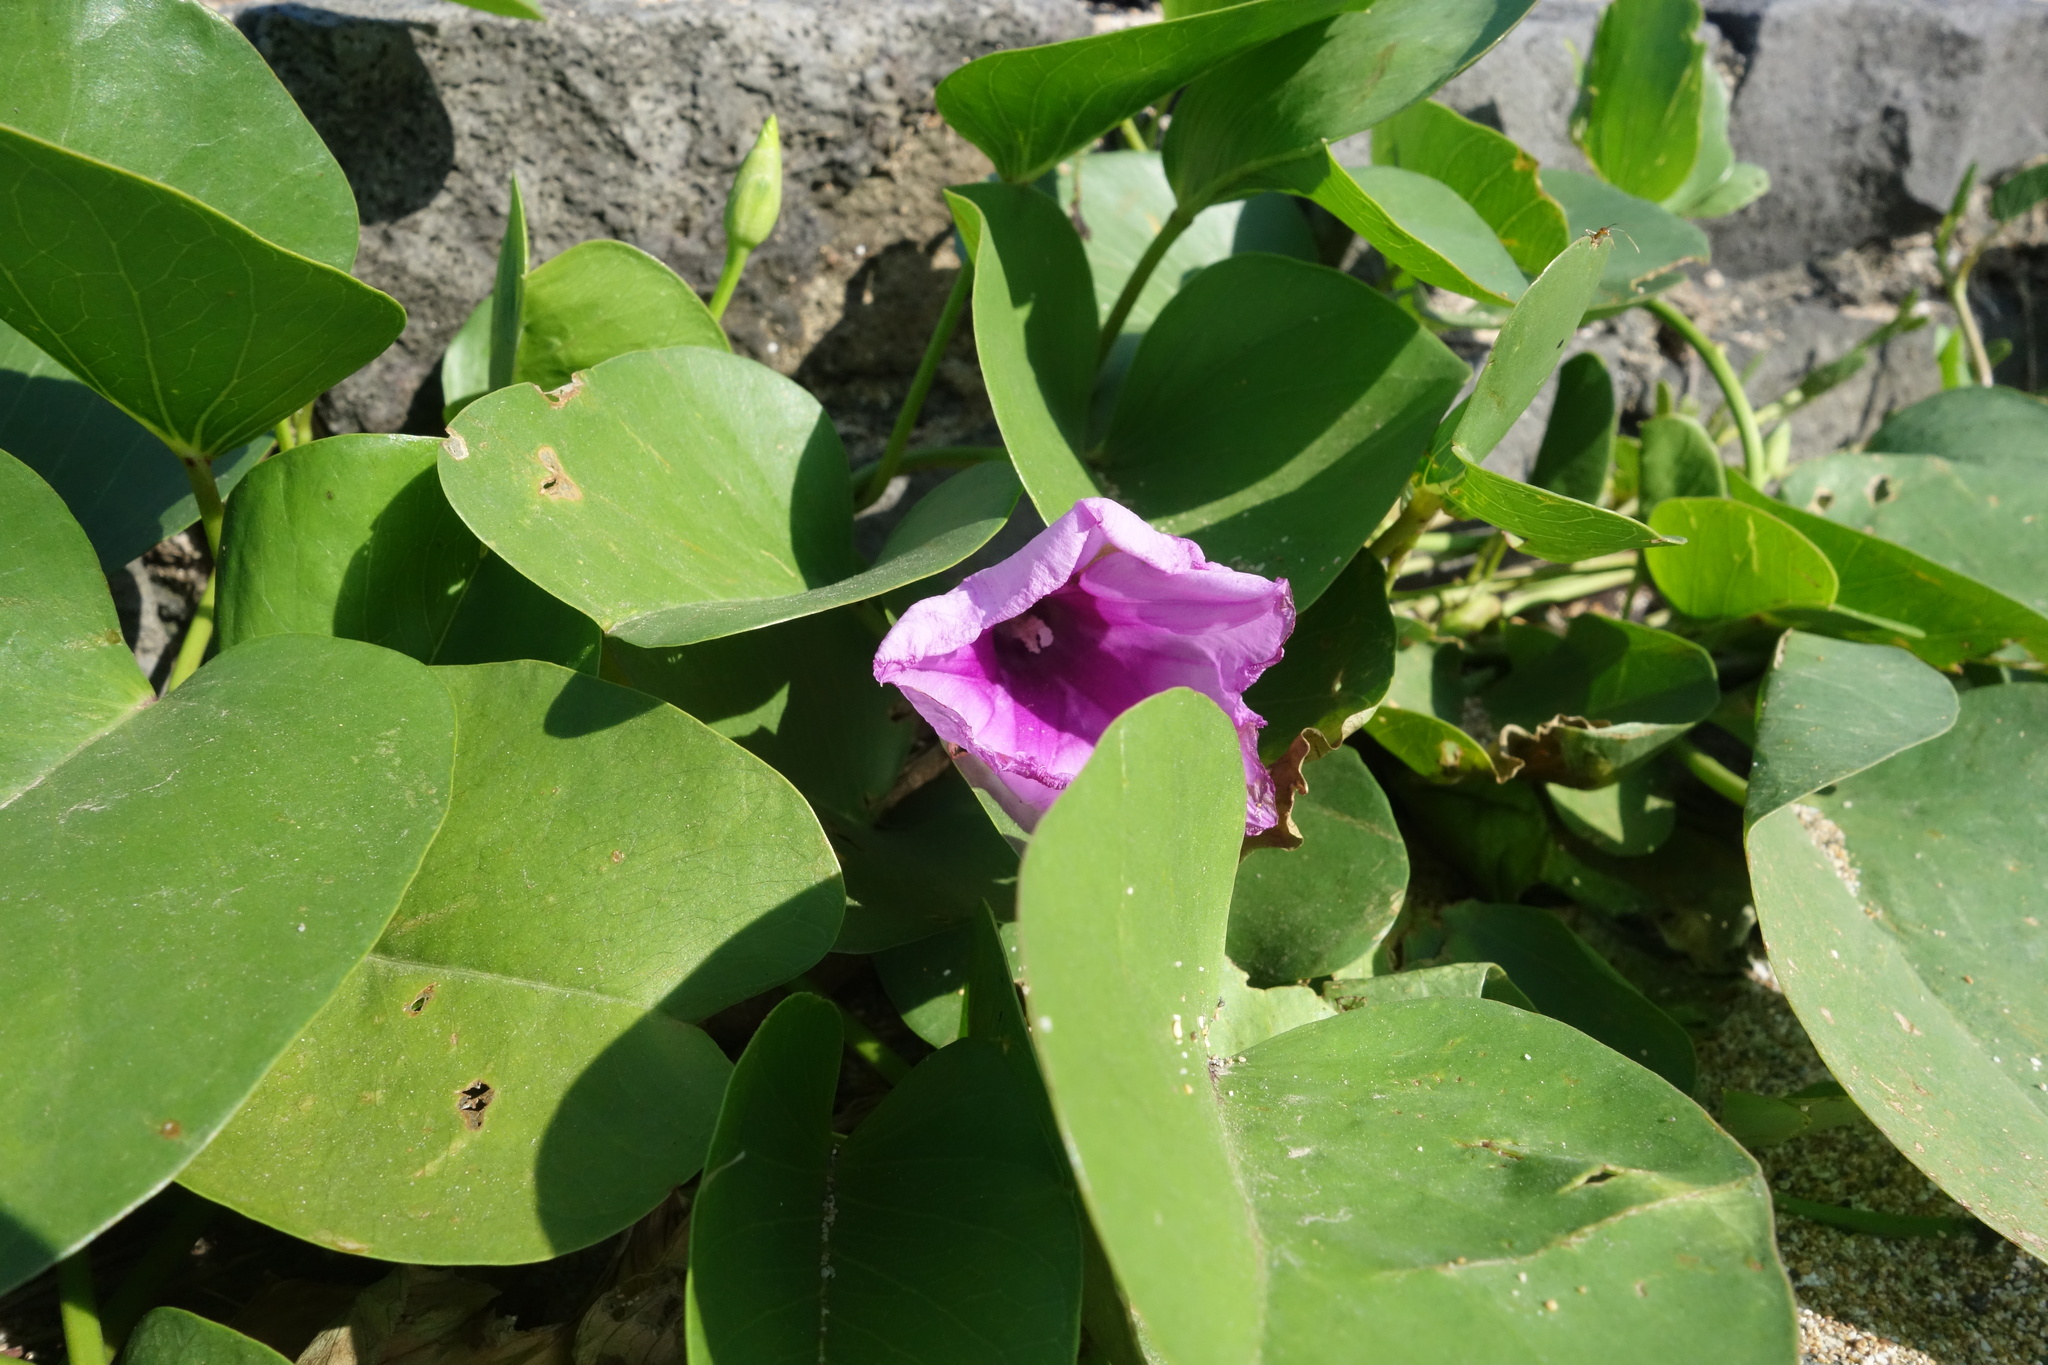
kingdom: Plantae
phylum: Tracheophyta
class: Magnoliopsida
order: Solanales
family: Convolvulaceae
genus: Ipomoea
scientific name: Ipomoea pes-caprae
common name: Beach morning glory
